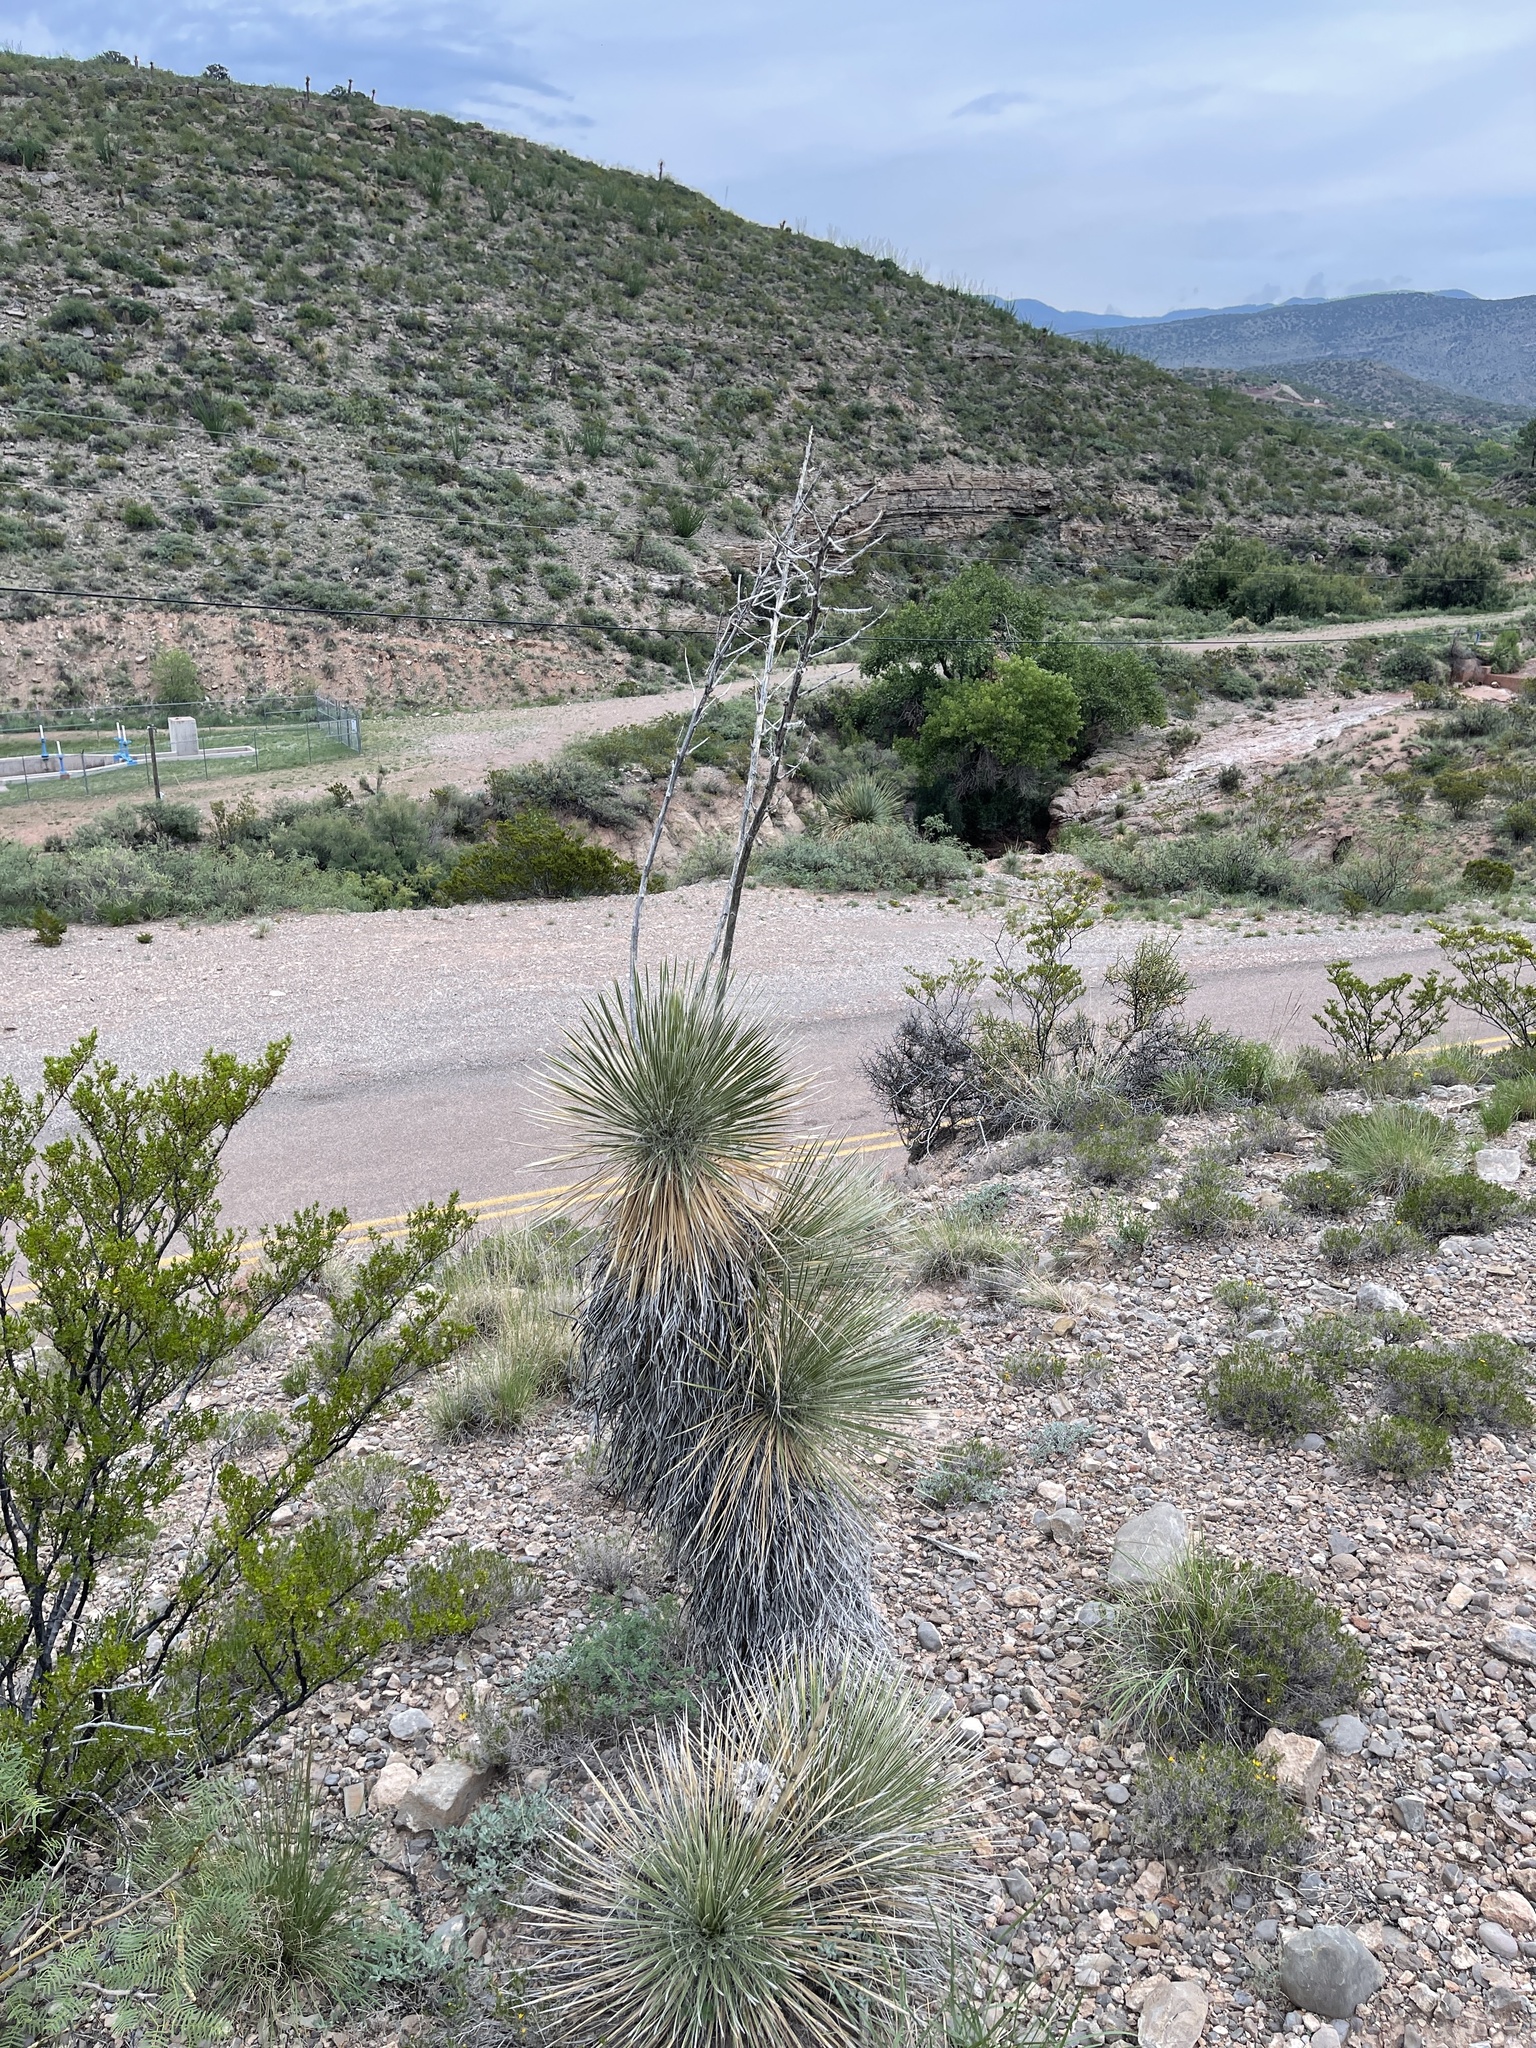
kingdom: Plantae
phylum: Tracheophyta
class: Liliopsida
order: Asparagales
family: Asparagaceae
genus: Yucca
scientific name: Yucca elata
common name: Palmella
